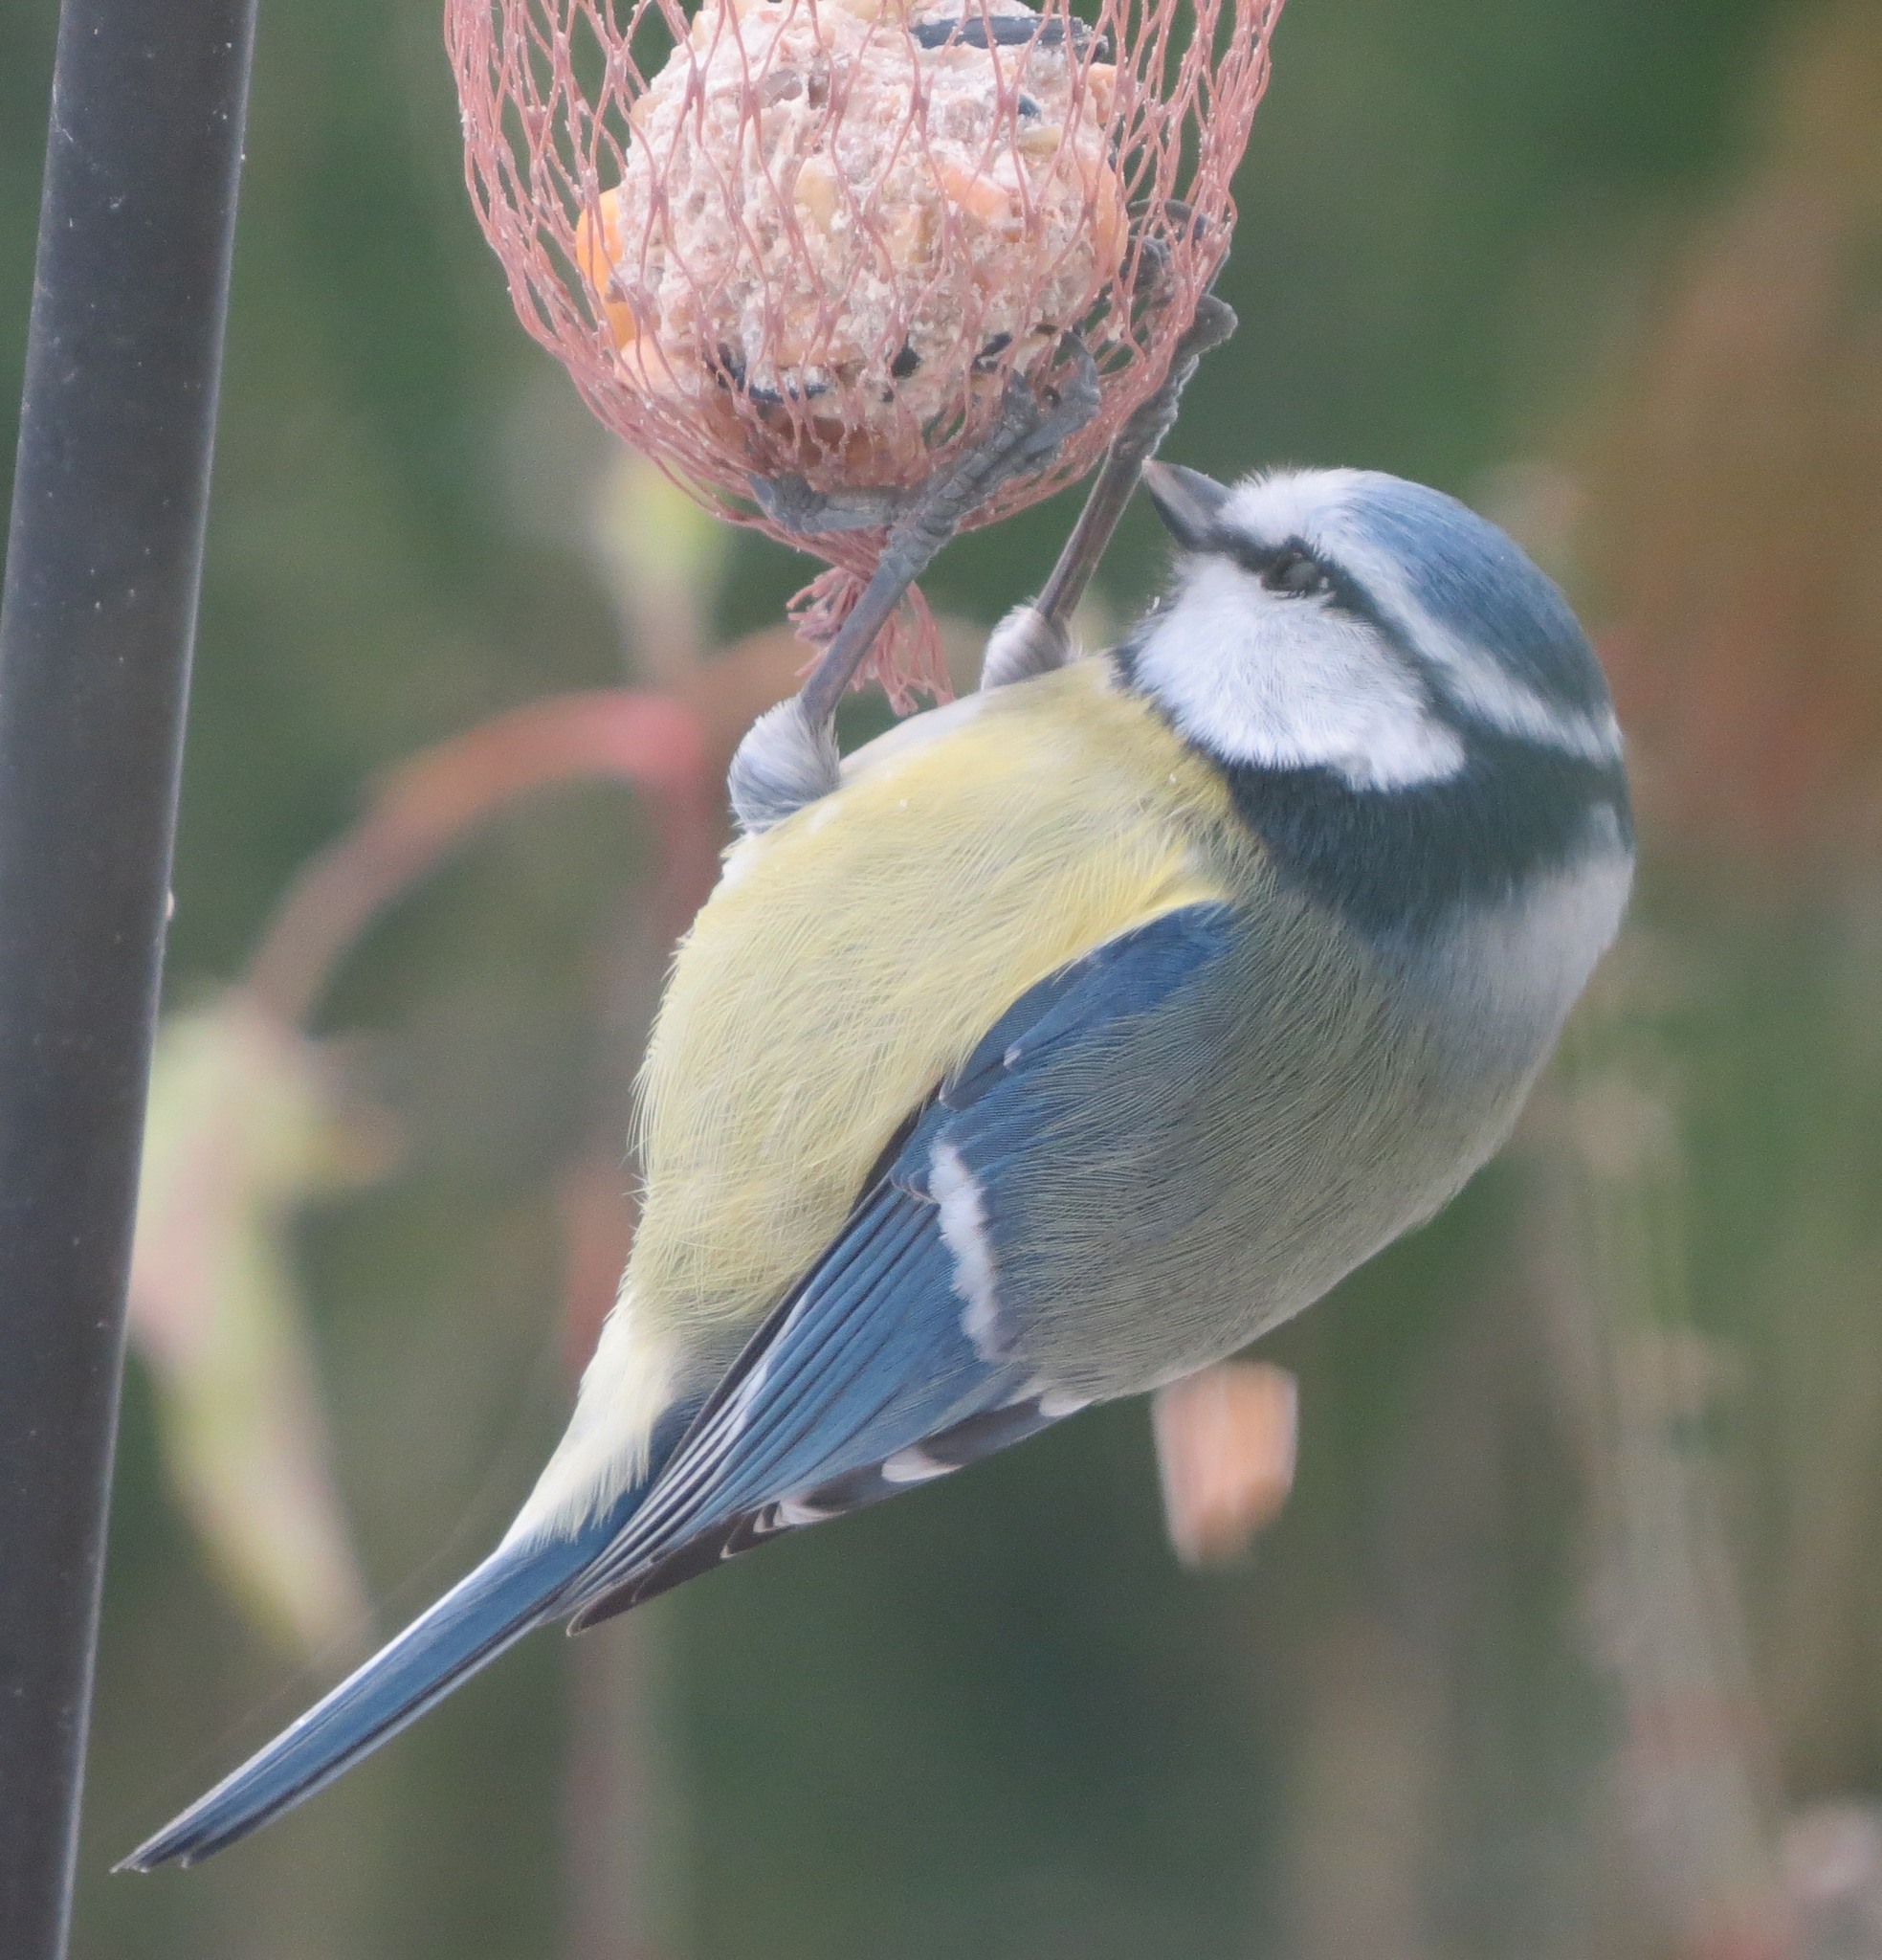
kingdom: Animalia
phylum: Chordata
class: Aves
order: Passeriformes
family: Paridae
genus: Cyanistes
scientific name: Cyanistes caeruleus
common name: Eurasian blue tit
